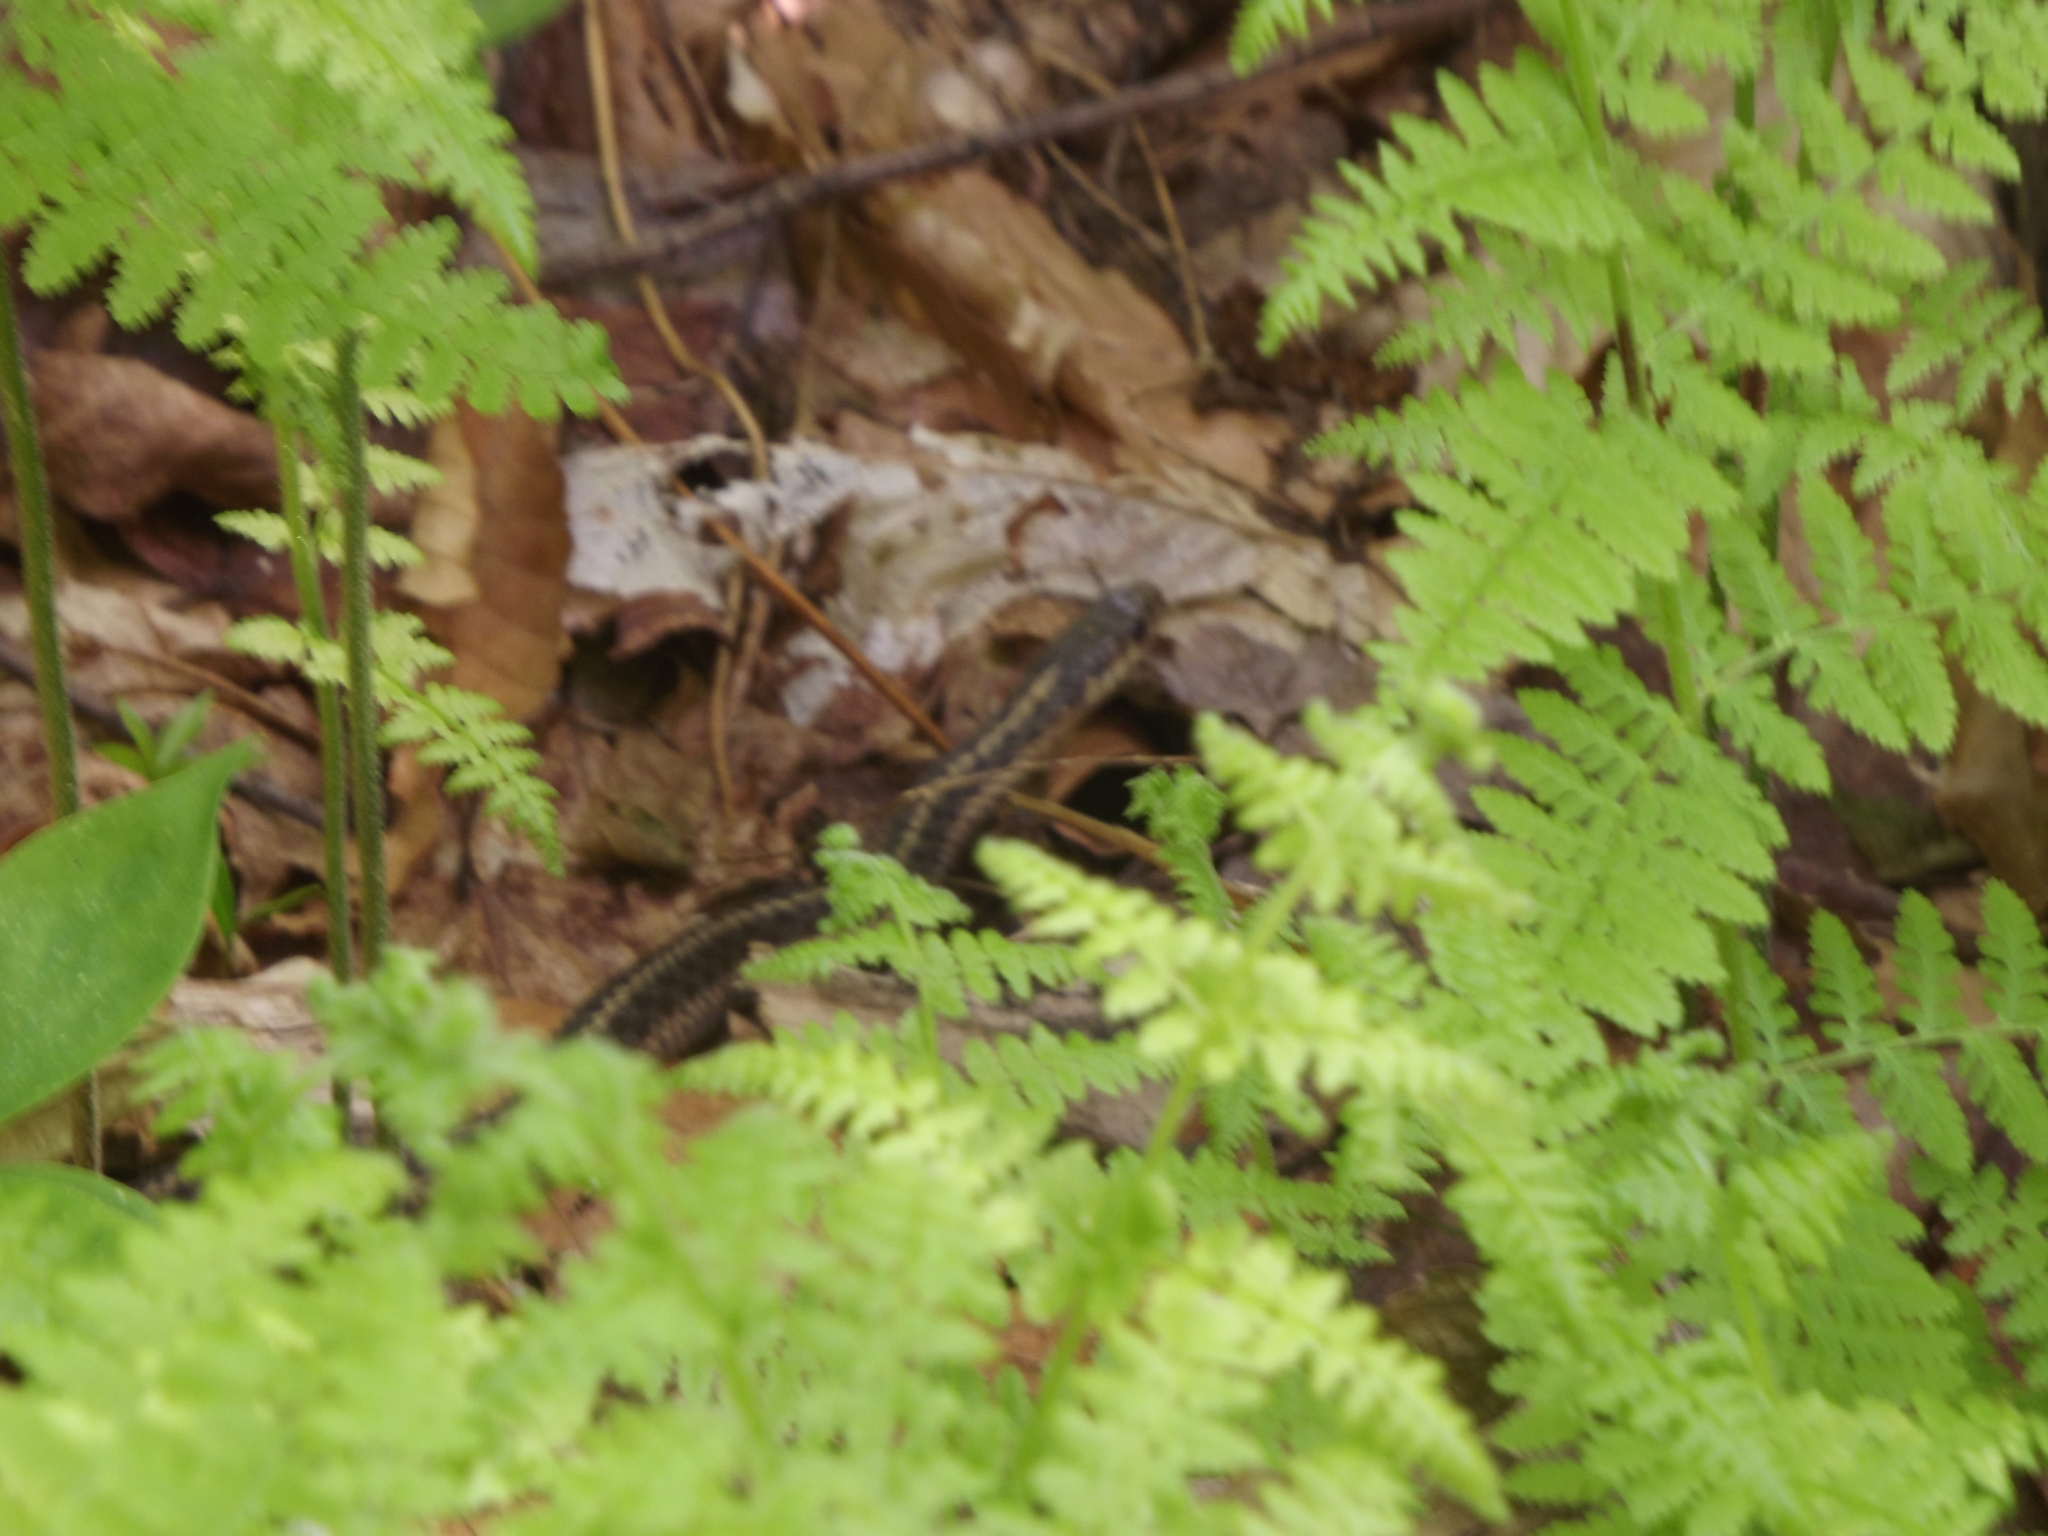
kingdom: Animalia
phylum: Chordata
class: Squamata
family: Colubridae
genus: Thamnophis
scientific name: Thamnophis sirtalis
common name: Common garter snake
